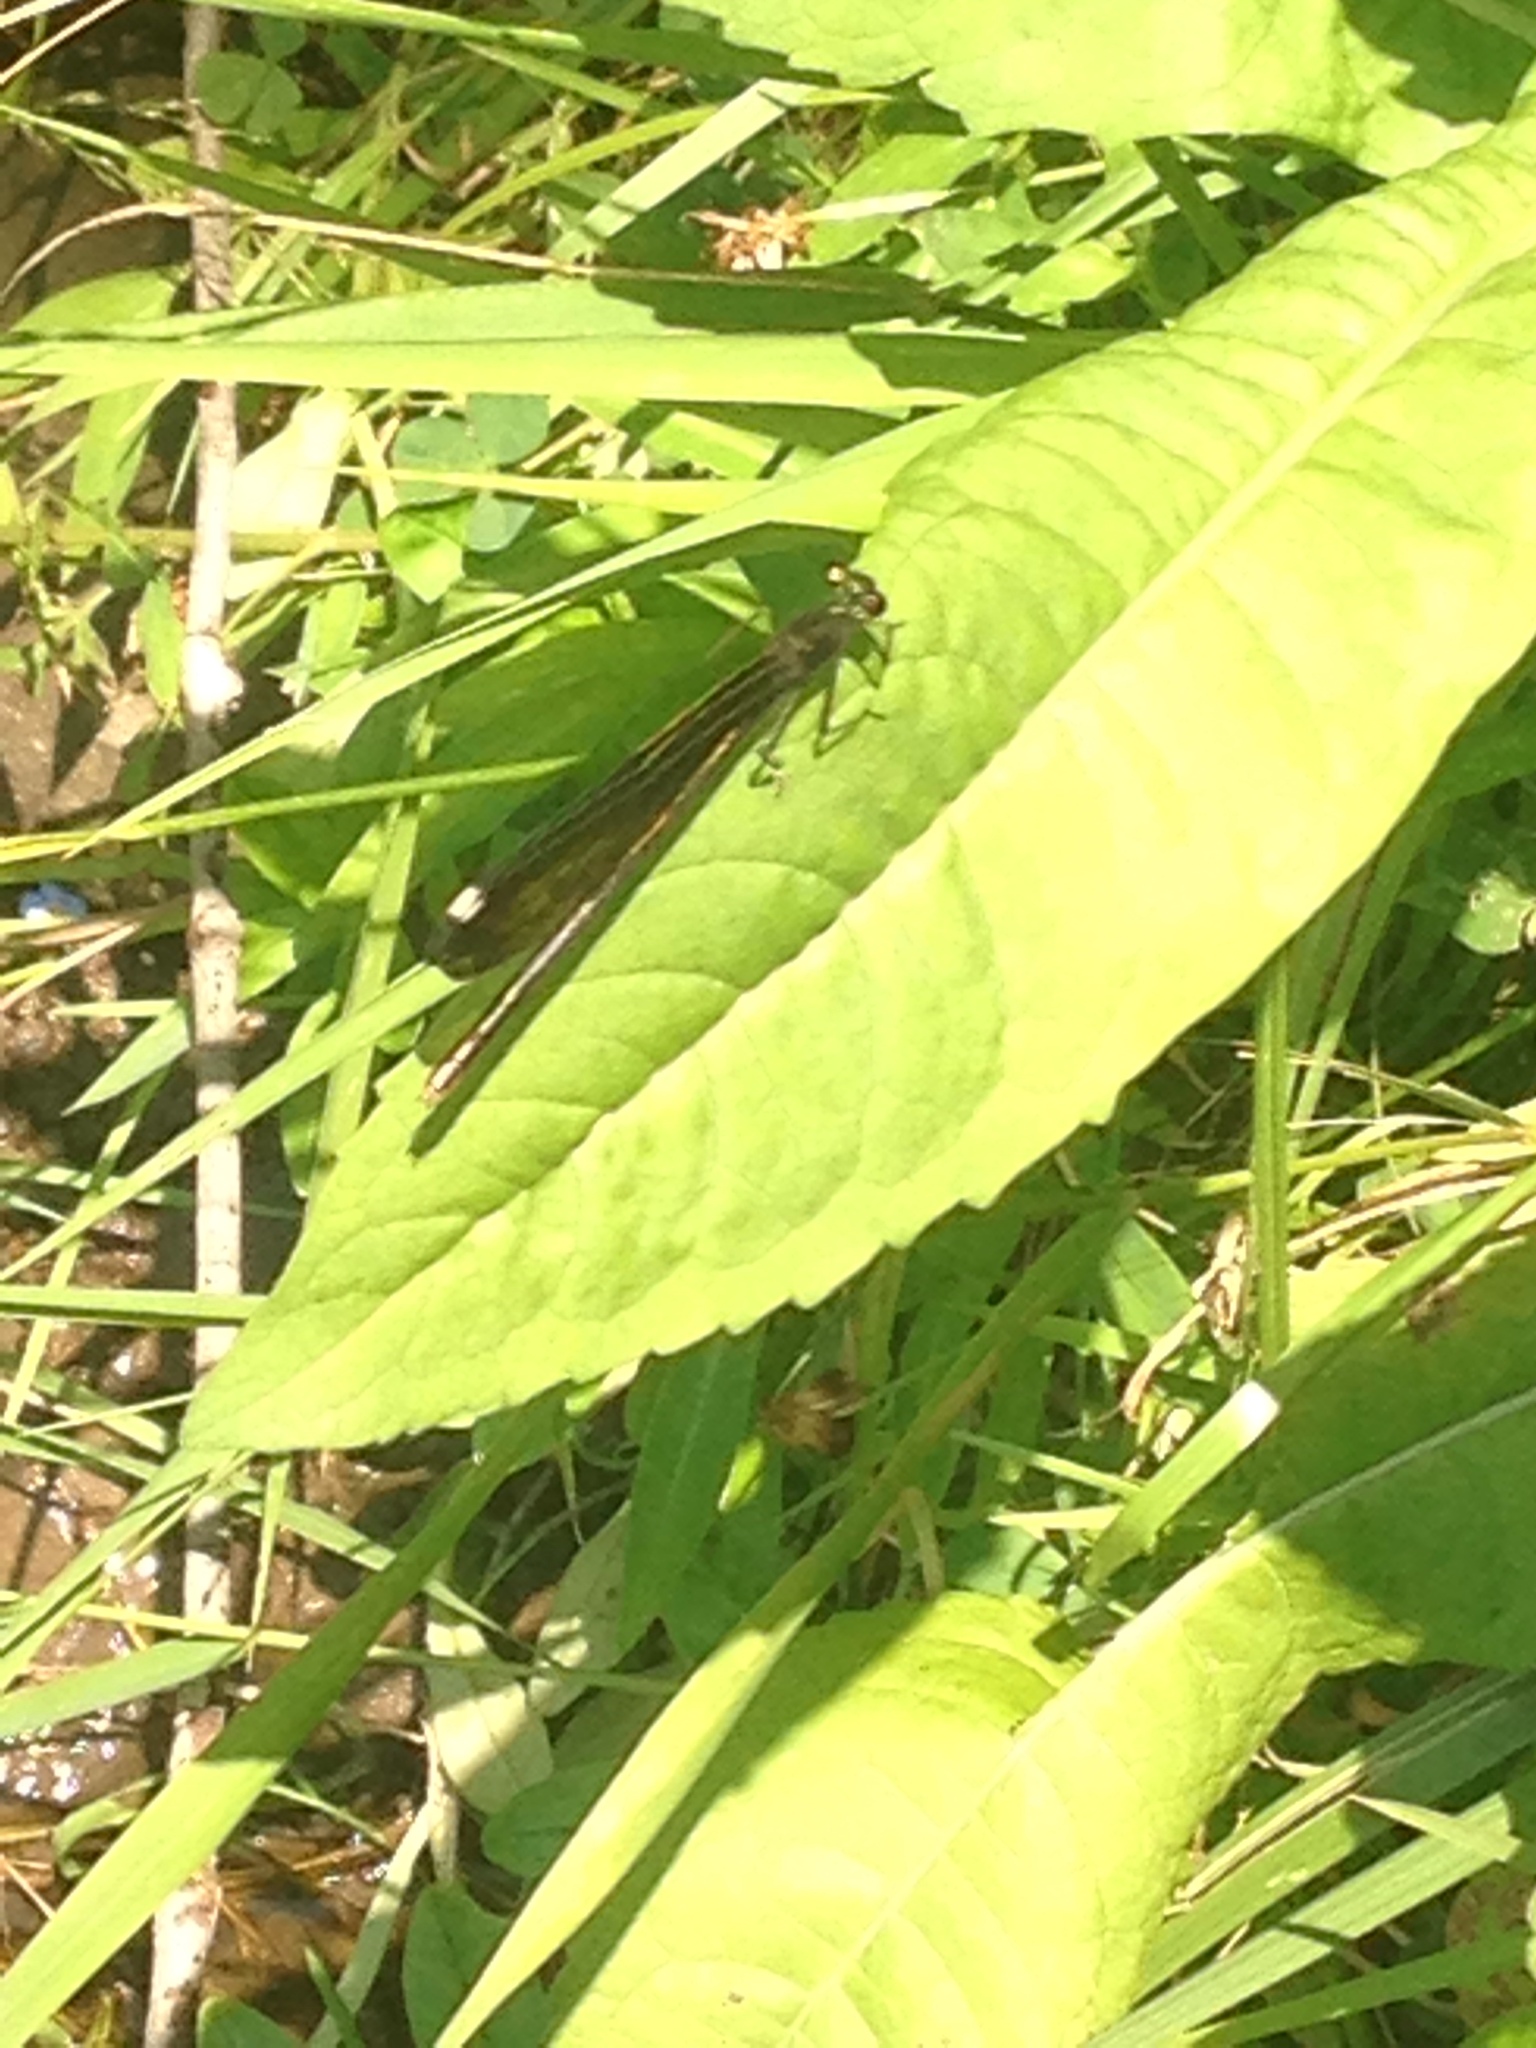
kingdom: Animalia
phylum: Arthropoda
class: Insecta
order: Odonata
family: Calopterygidae
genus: Calopteryx
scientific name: Calopteryx maculata
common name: Ebony jewelwing
